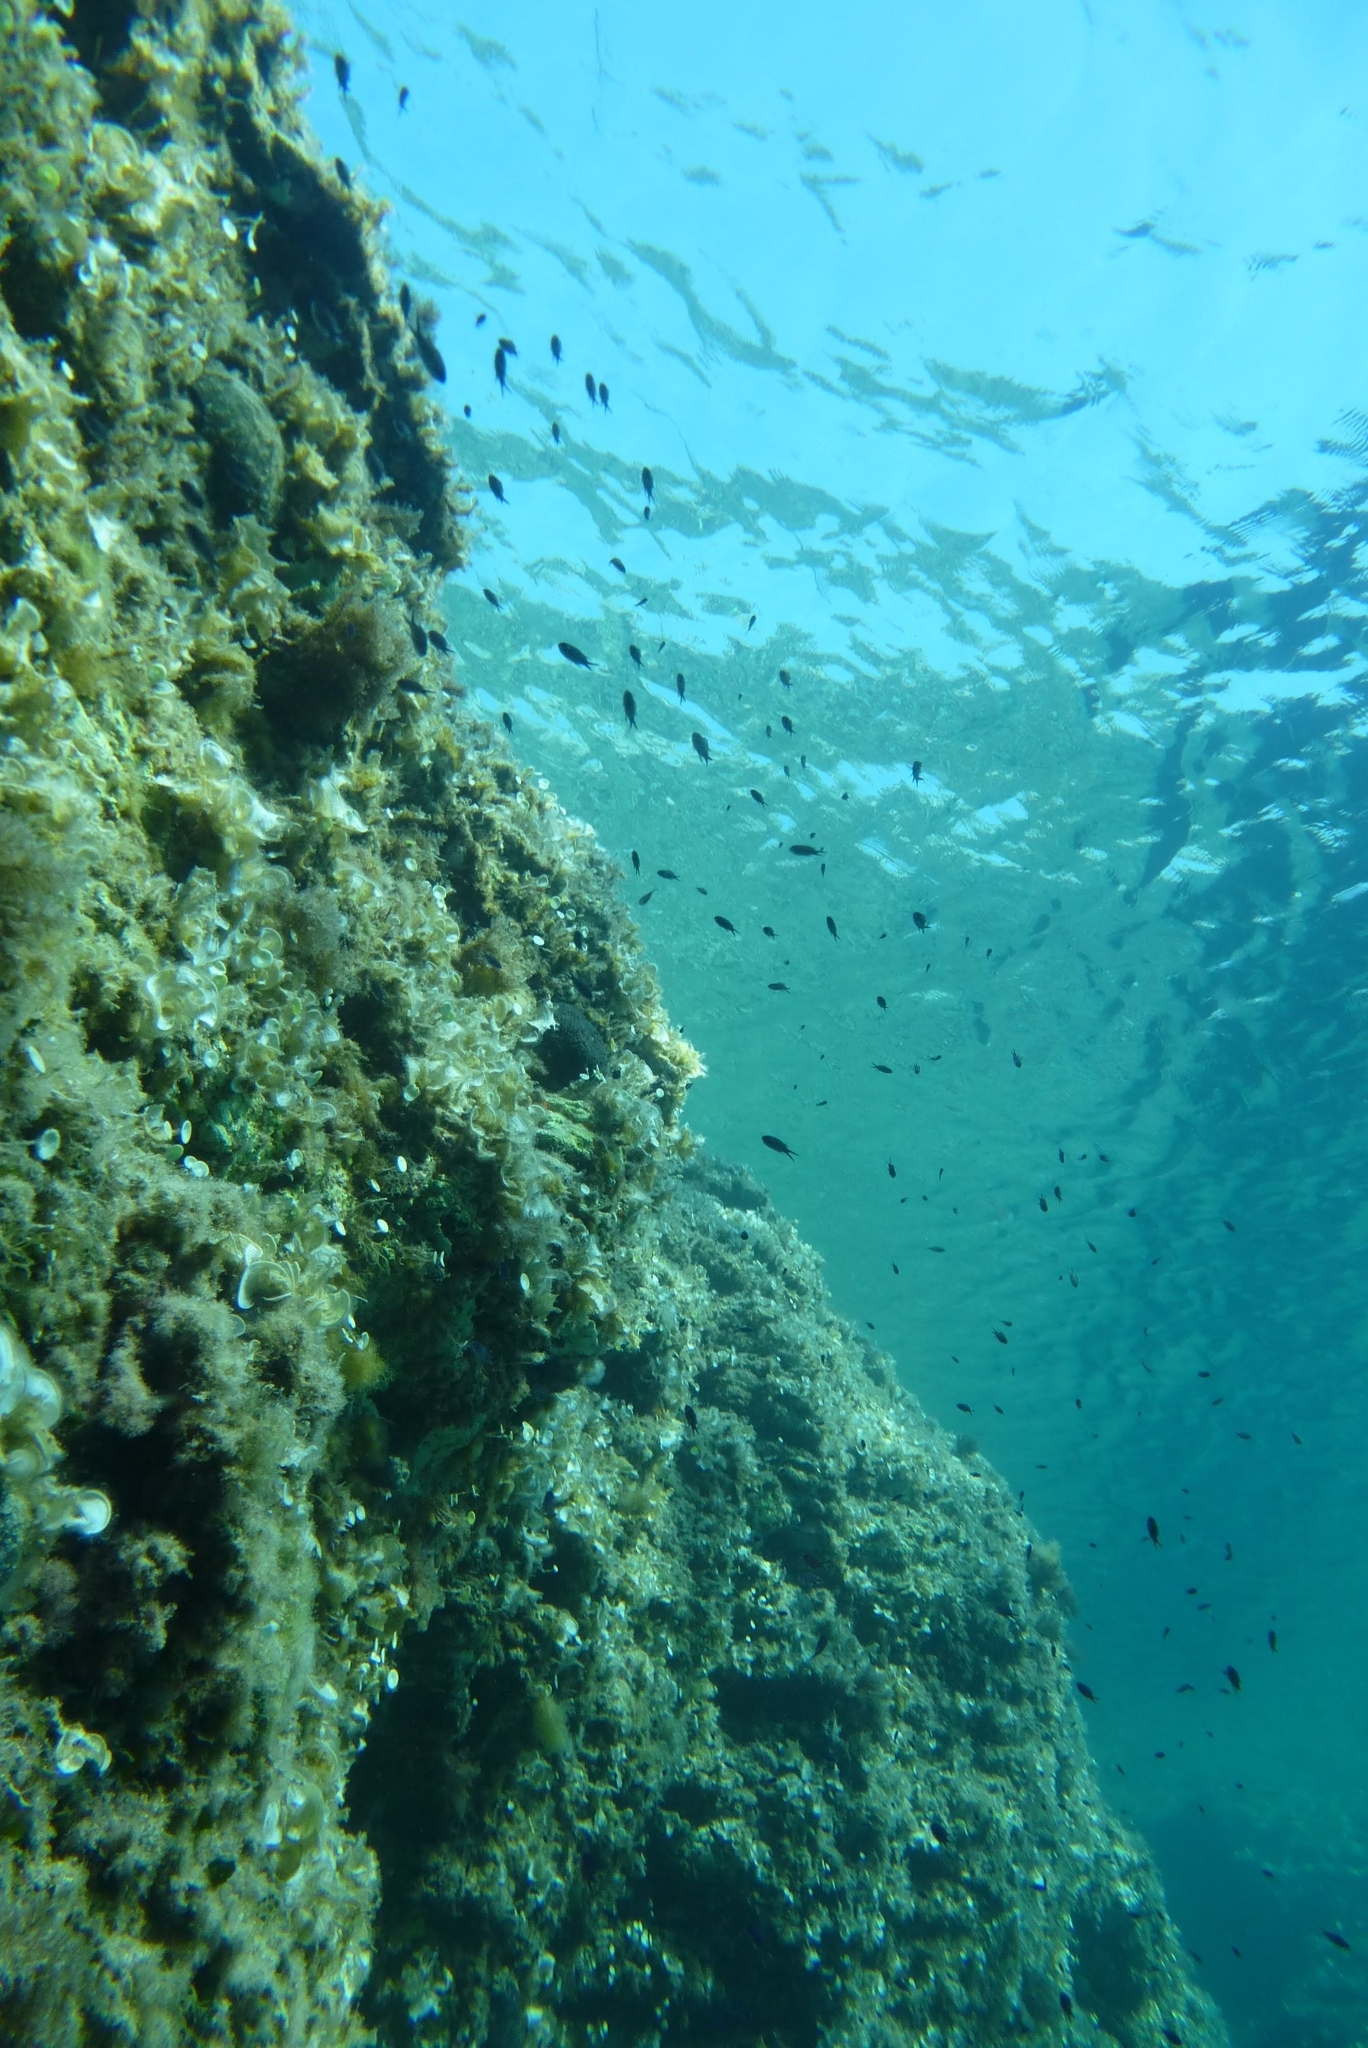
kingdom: Animalia
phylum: Chordata
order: Perciformes
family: Pomacentridae
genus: Chromis
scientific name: Chromis chromis
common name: Damselfish
